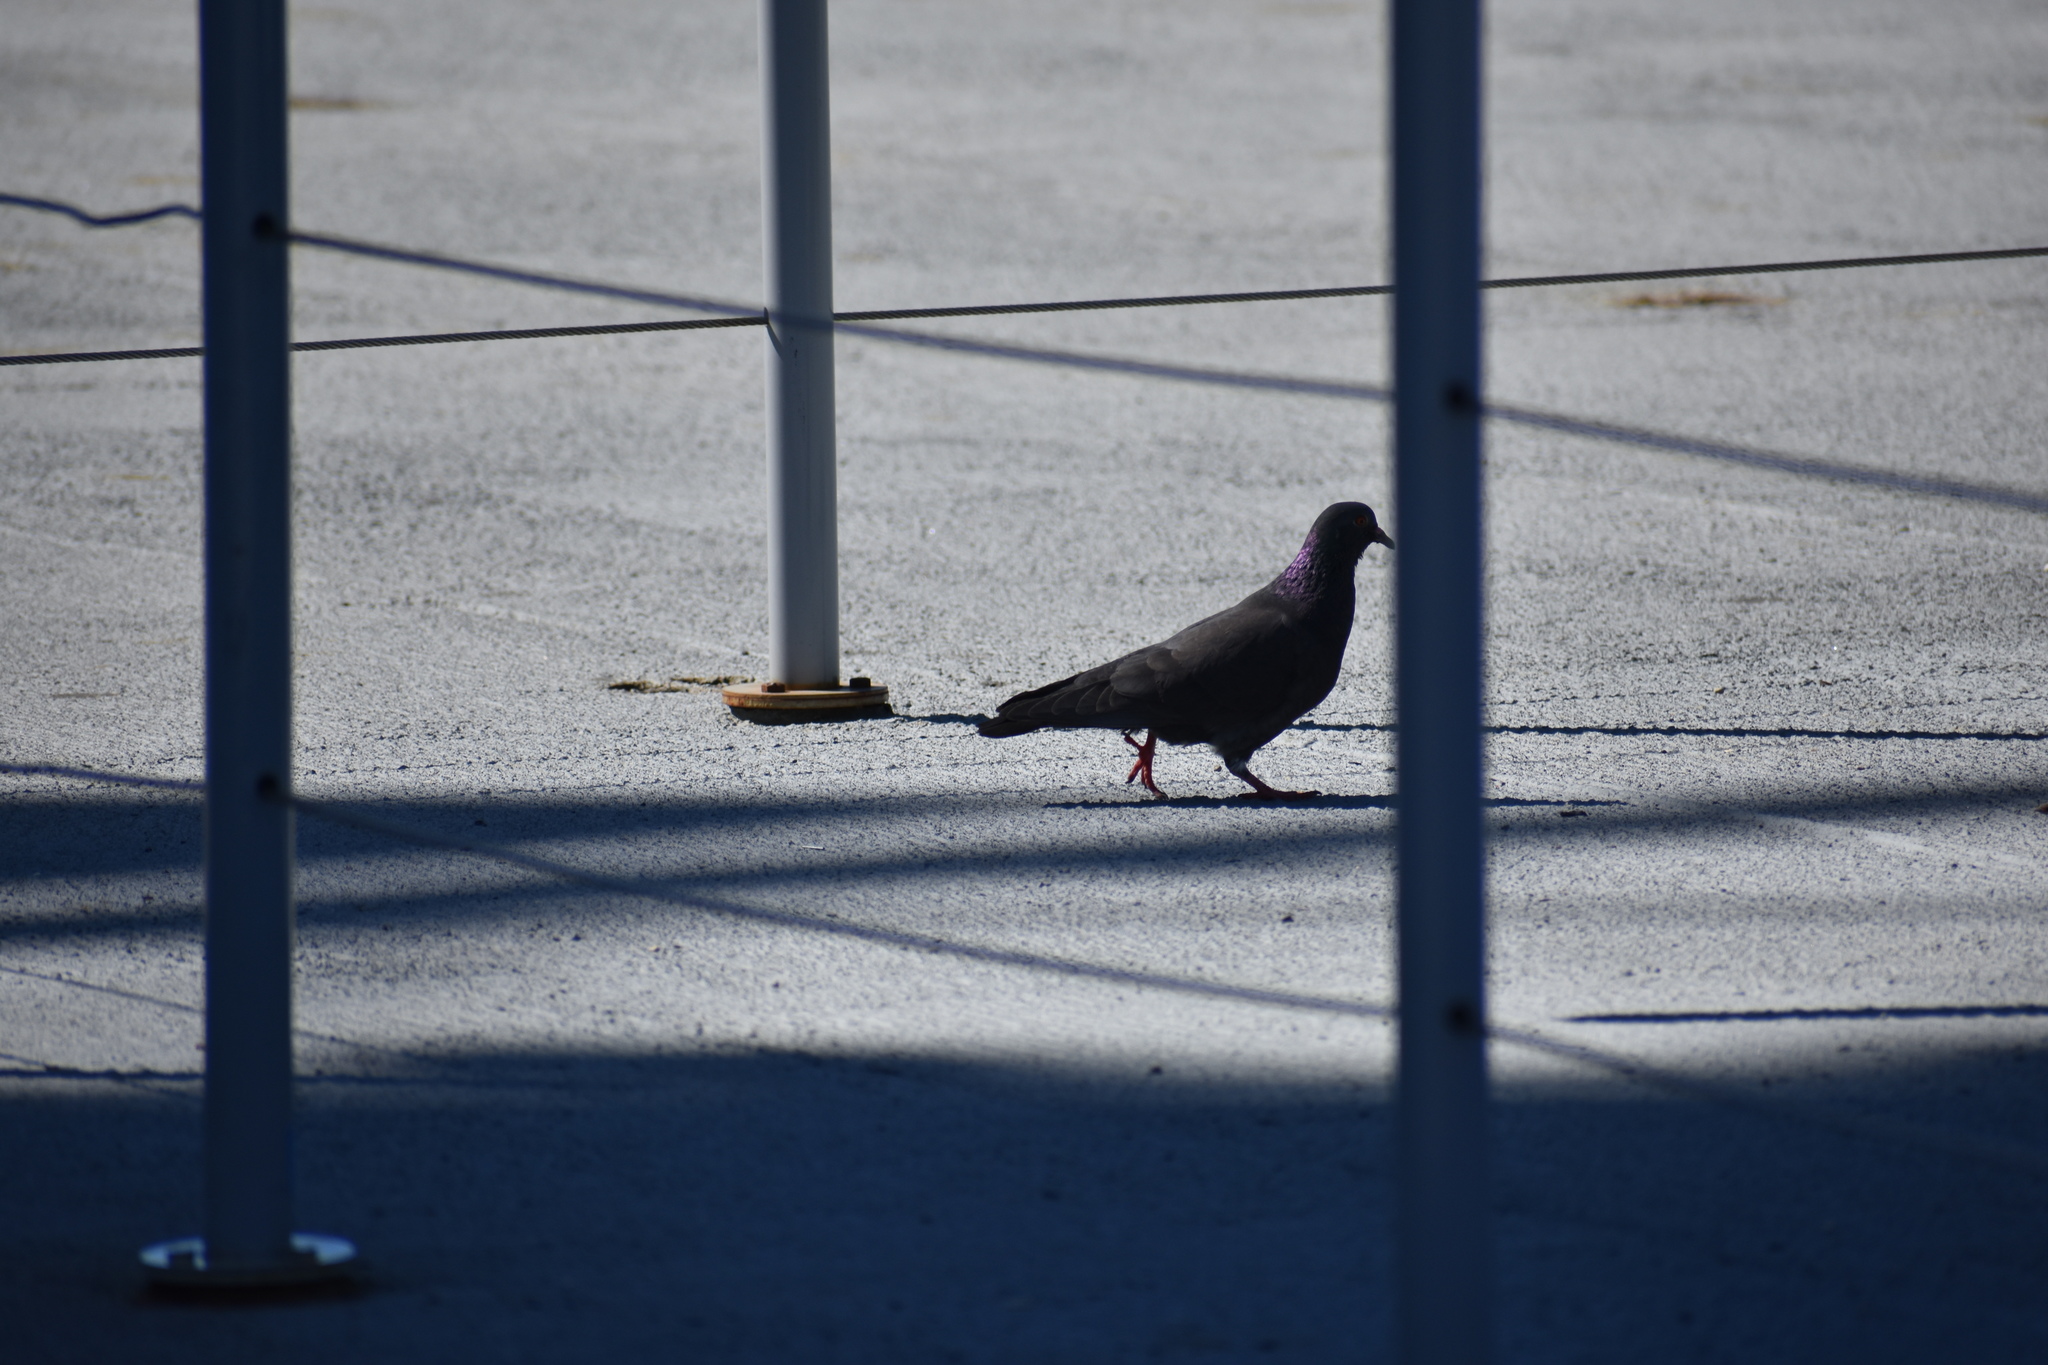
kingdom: Animalia
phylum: Chordata
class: Aves
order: Columbiformes
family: Columbidae
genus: Columba
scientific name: Columba livia
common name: Rock pigeon
